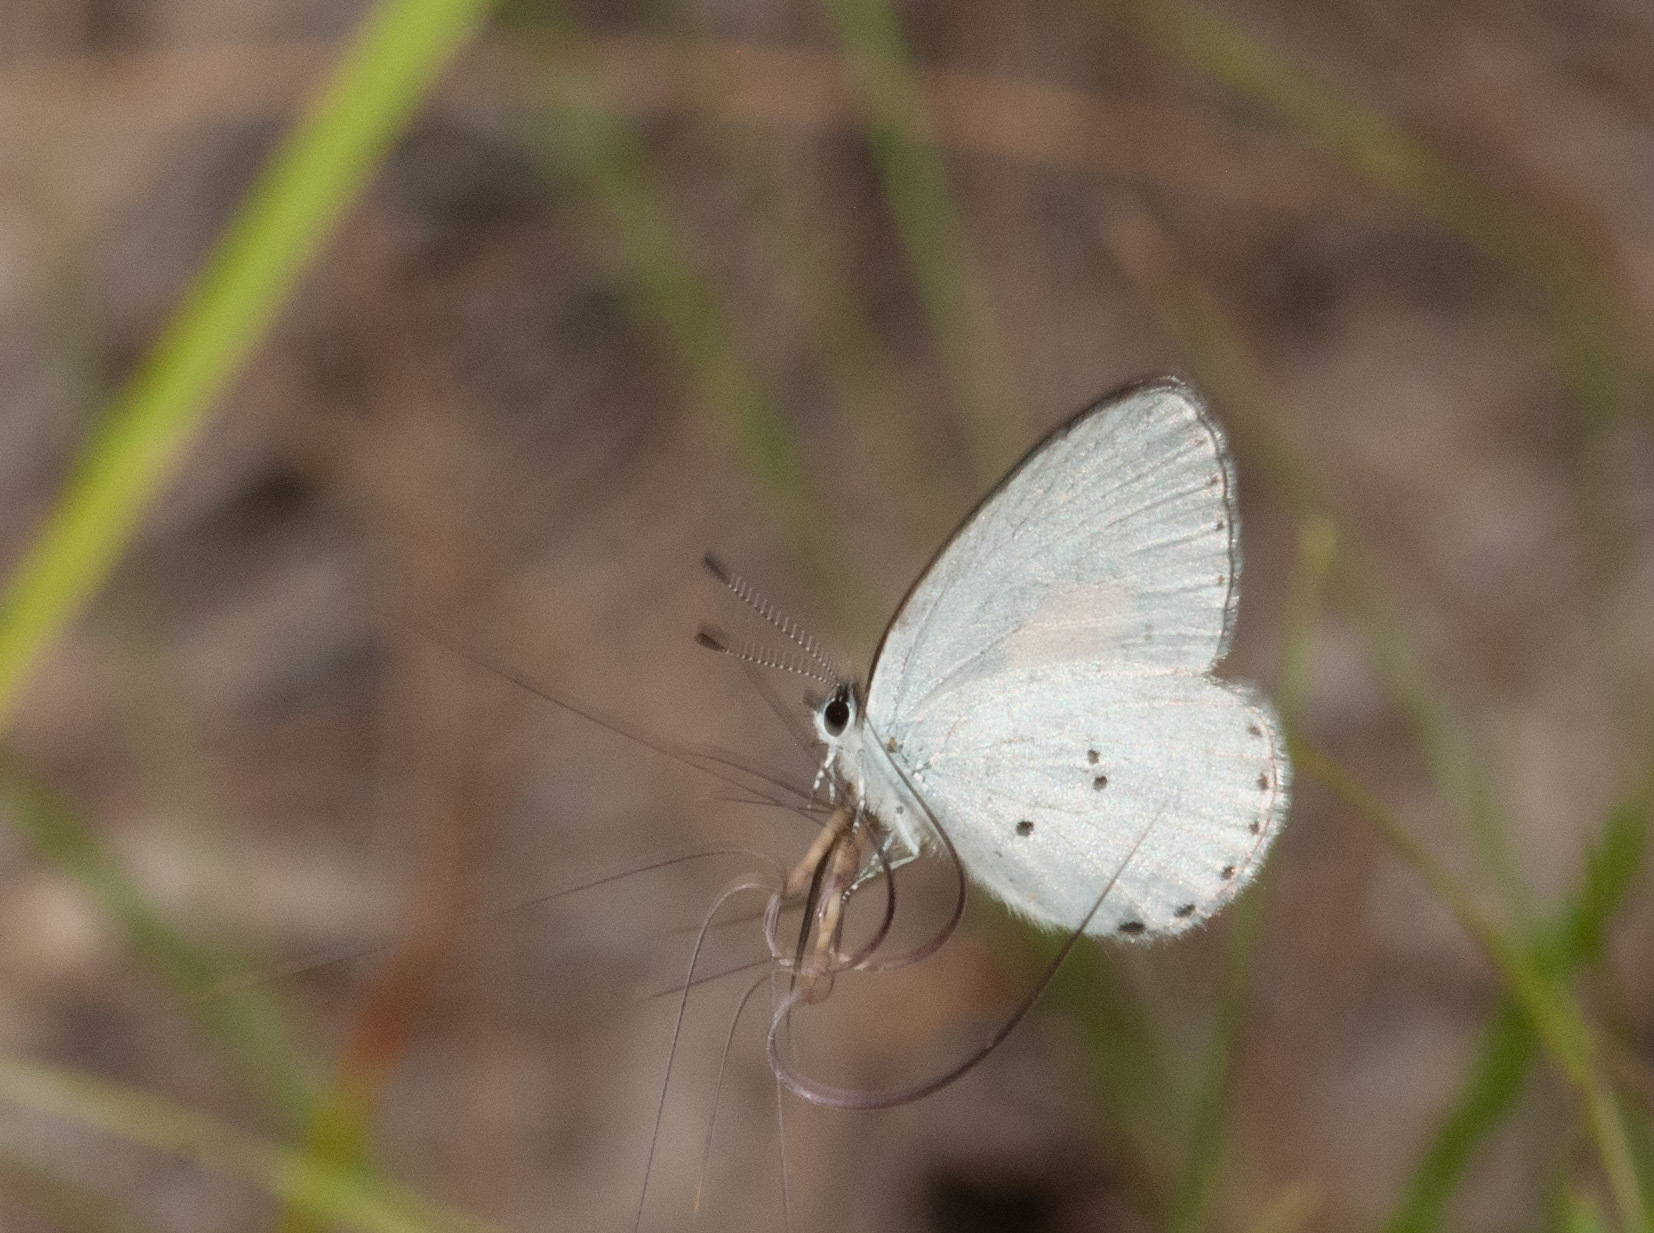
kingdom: Animalia
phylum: Arthropoda
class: Insecta
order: Lepidoptera
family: Lycaenidae
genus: Candalides
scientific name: Candalides xanthospilos
